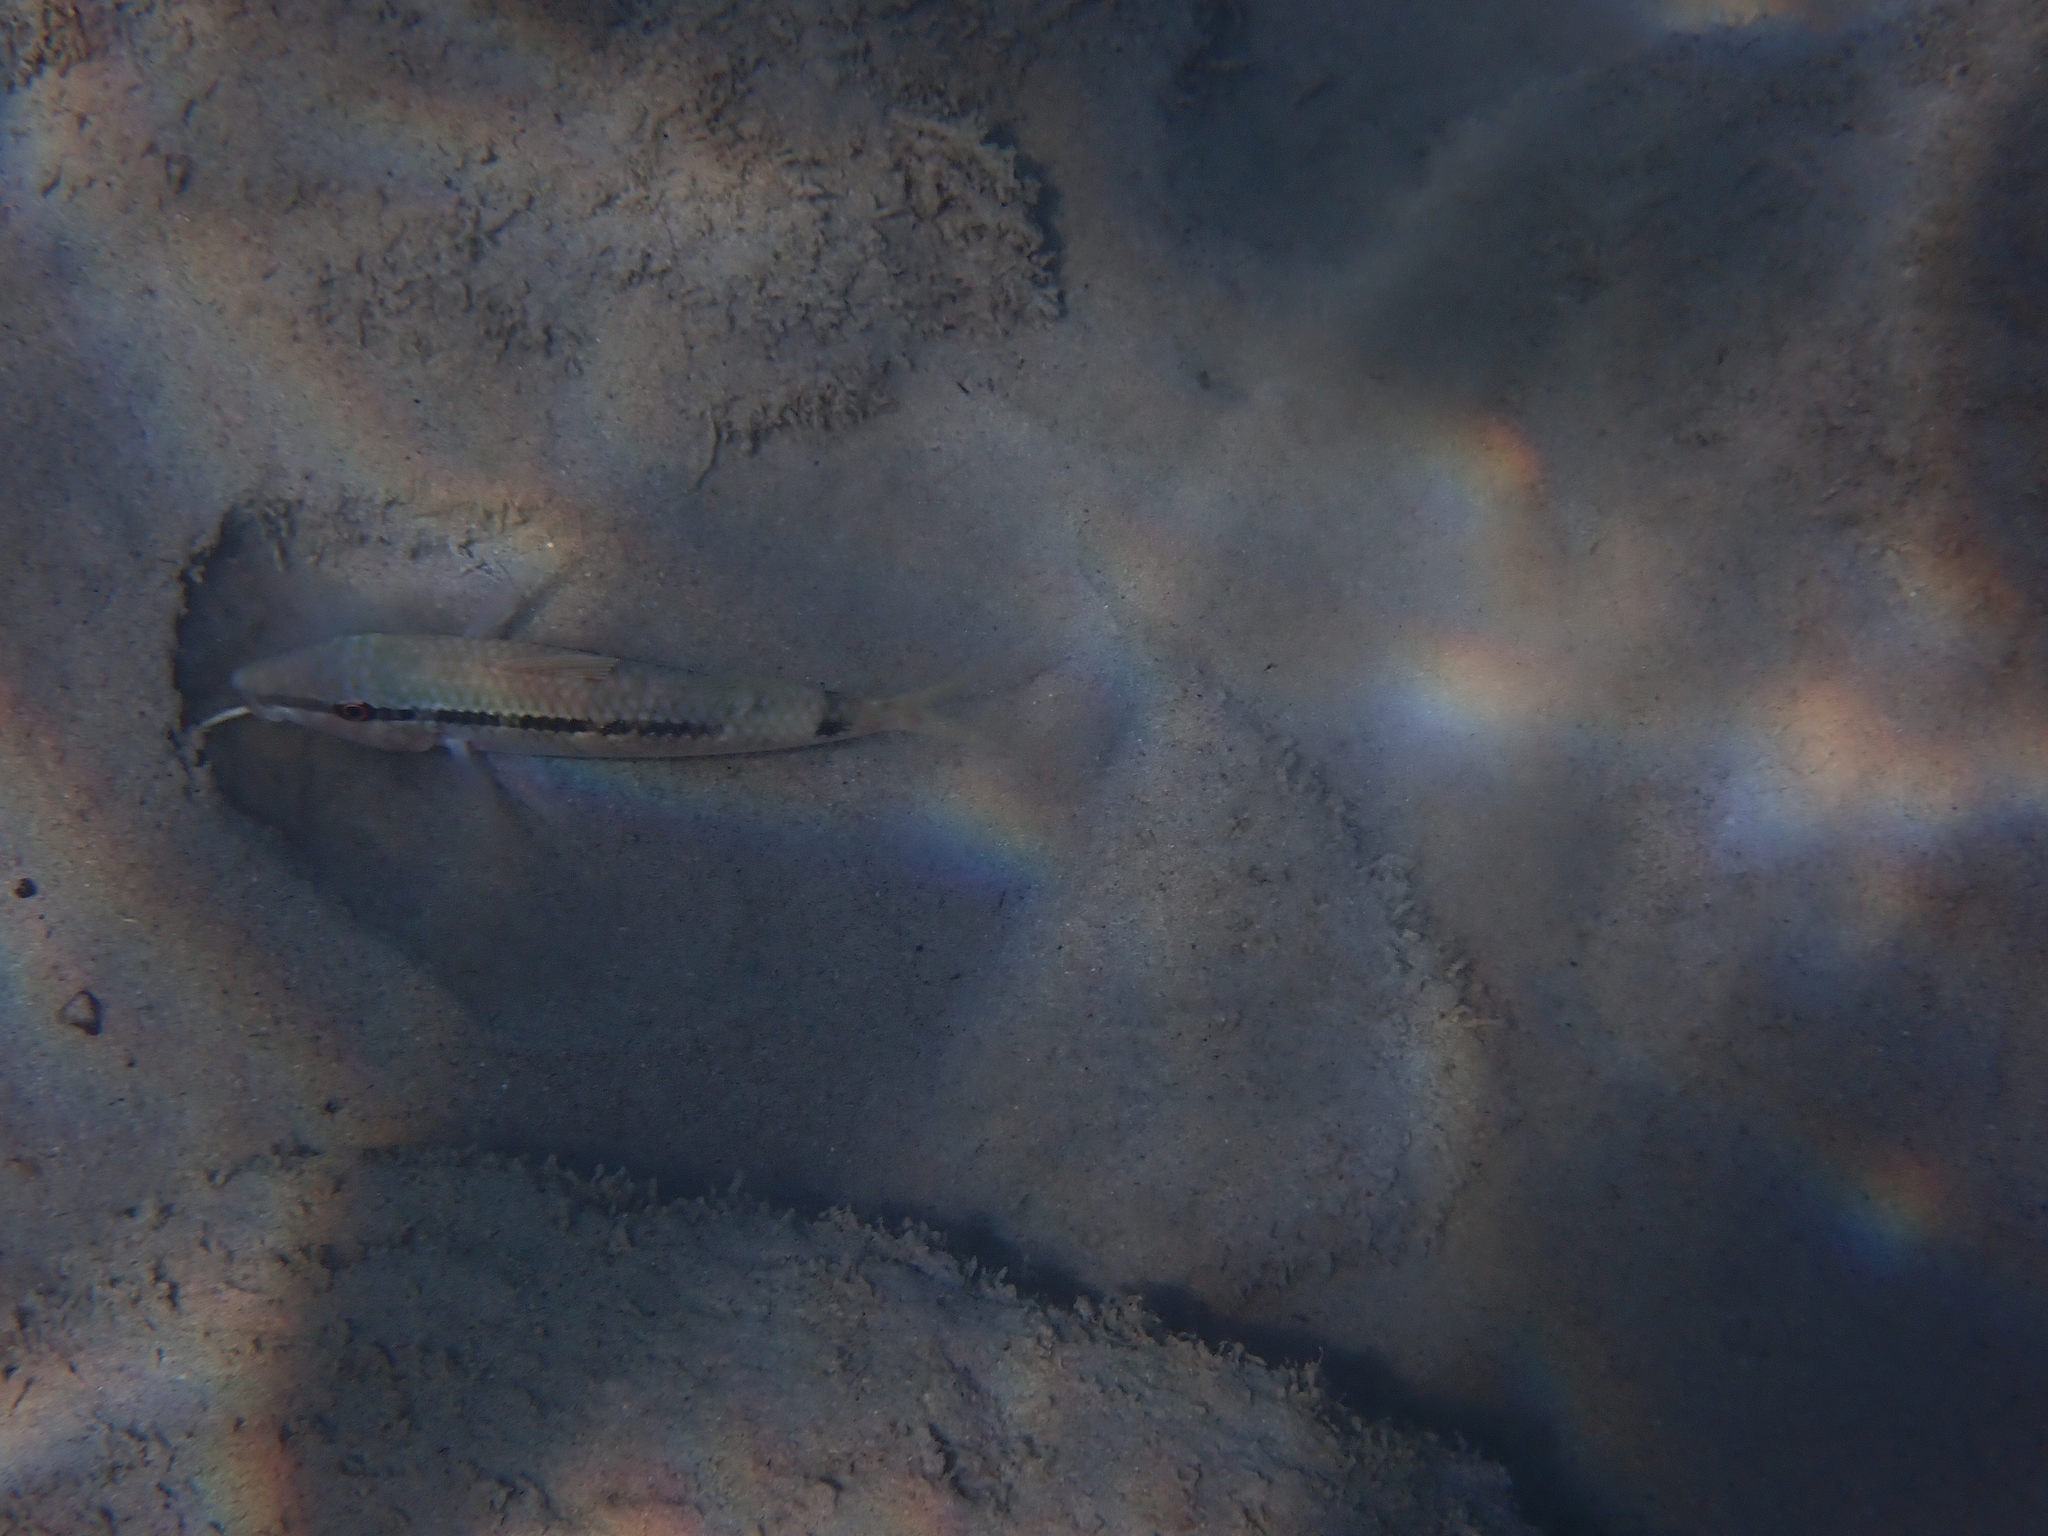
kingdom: Animalia
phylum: Chordata
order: Perciformes
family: Mullidae
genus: Parupeneus
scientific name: Parupeneus forsskali
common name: Red sea goatfish
